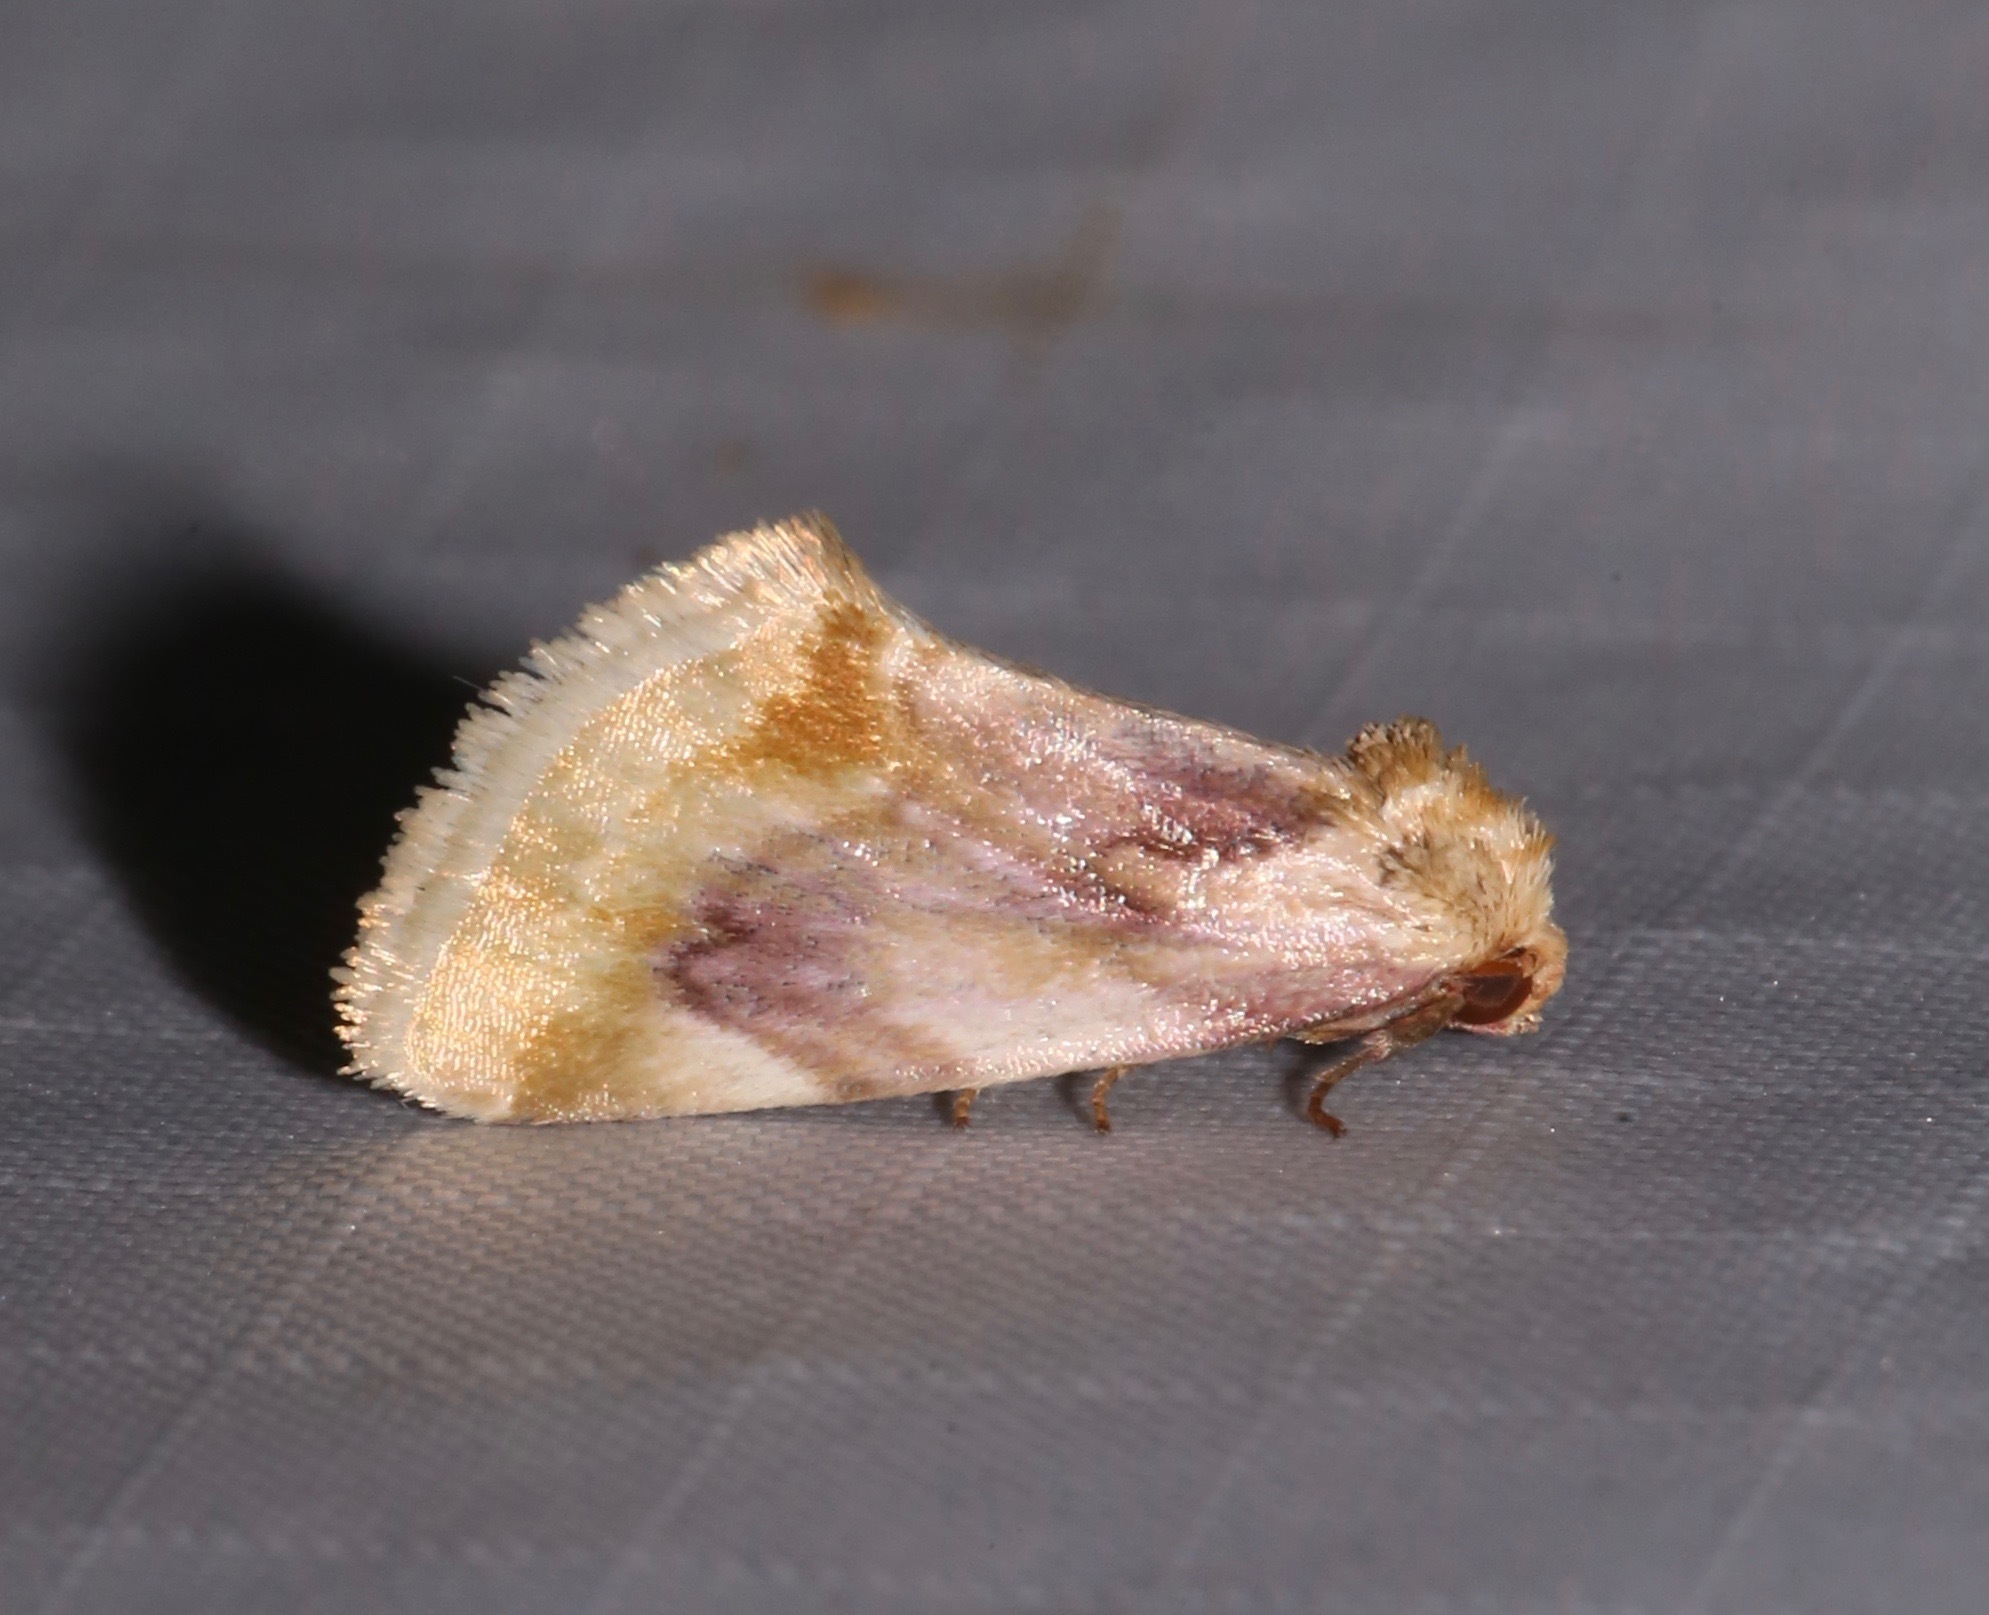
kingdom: Animalia
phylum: Arthropoda
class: Insecta
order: Lepidoptera
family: Noctuidae
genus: Chamaeclea
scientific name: Chamaeclea pernana
